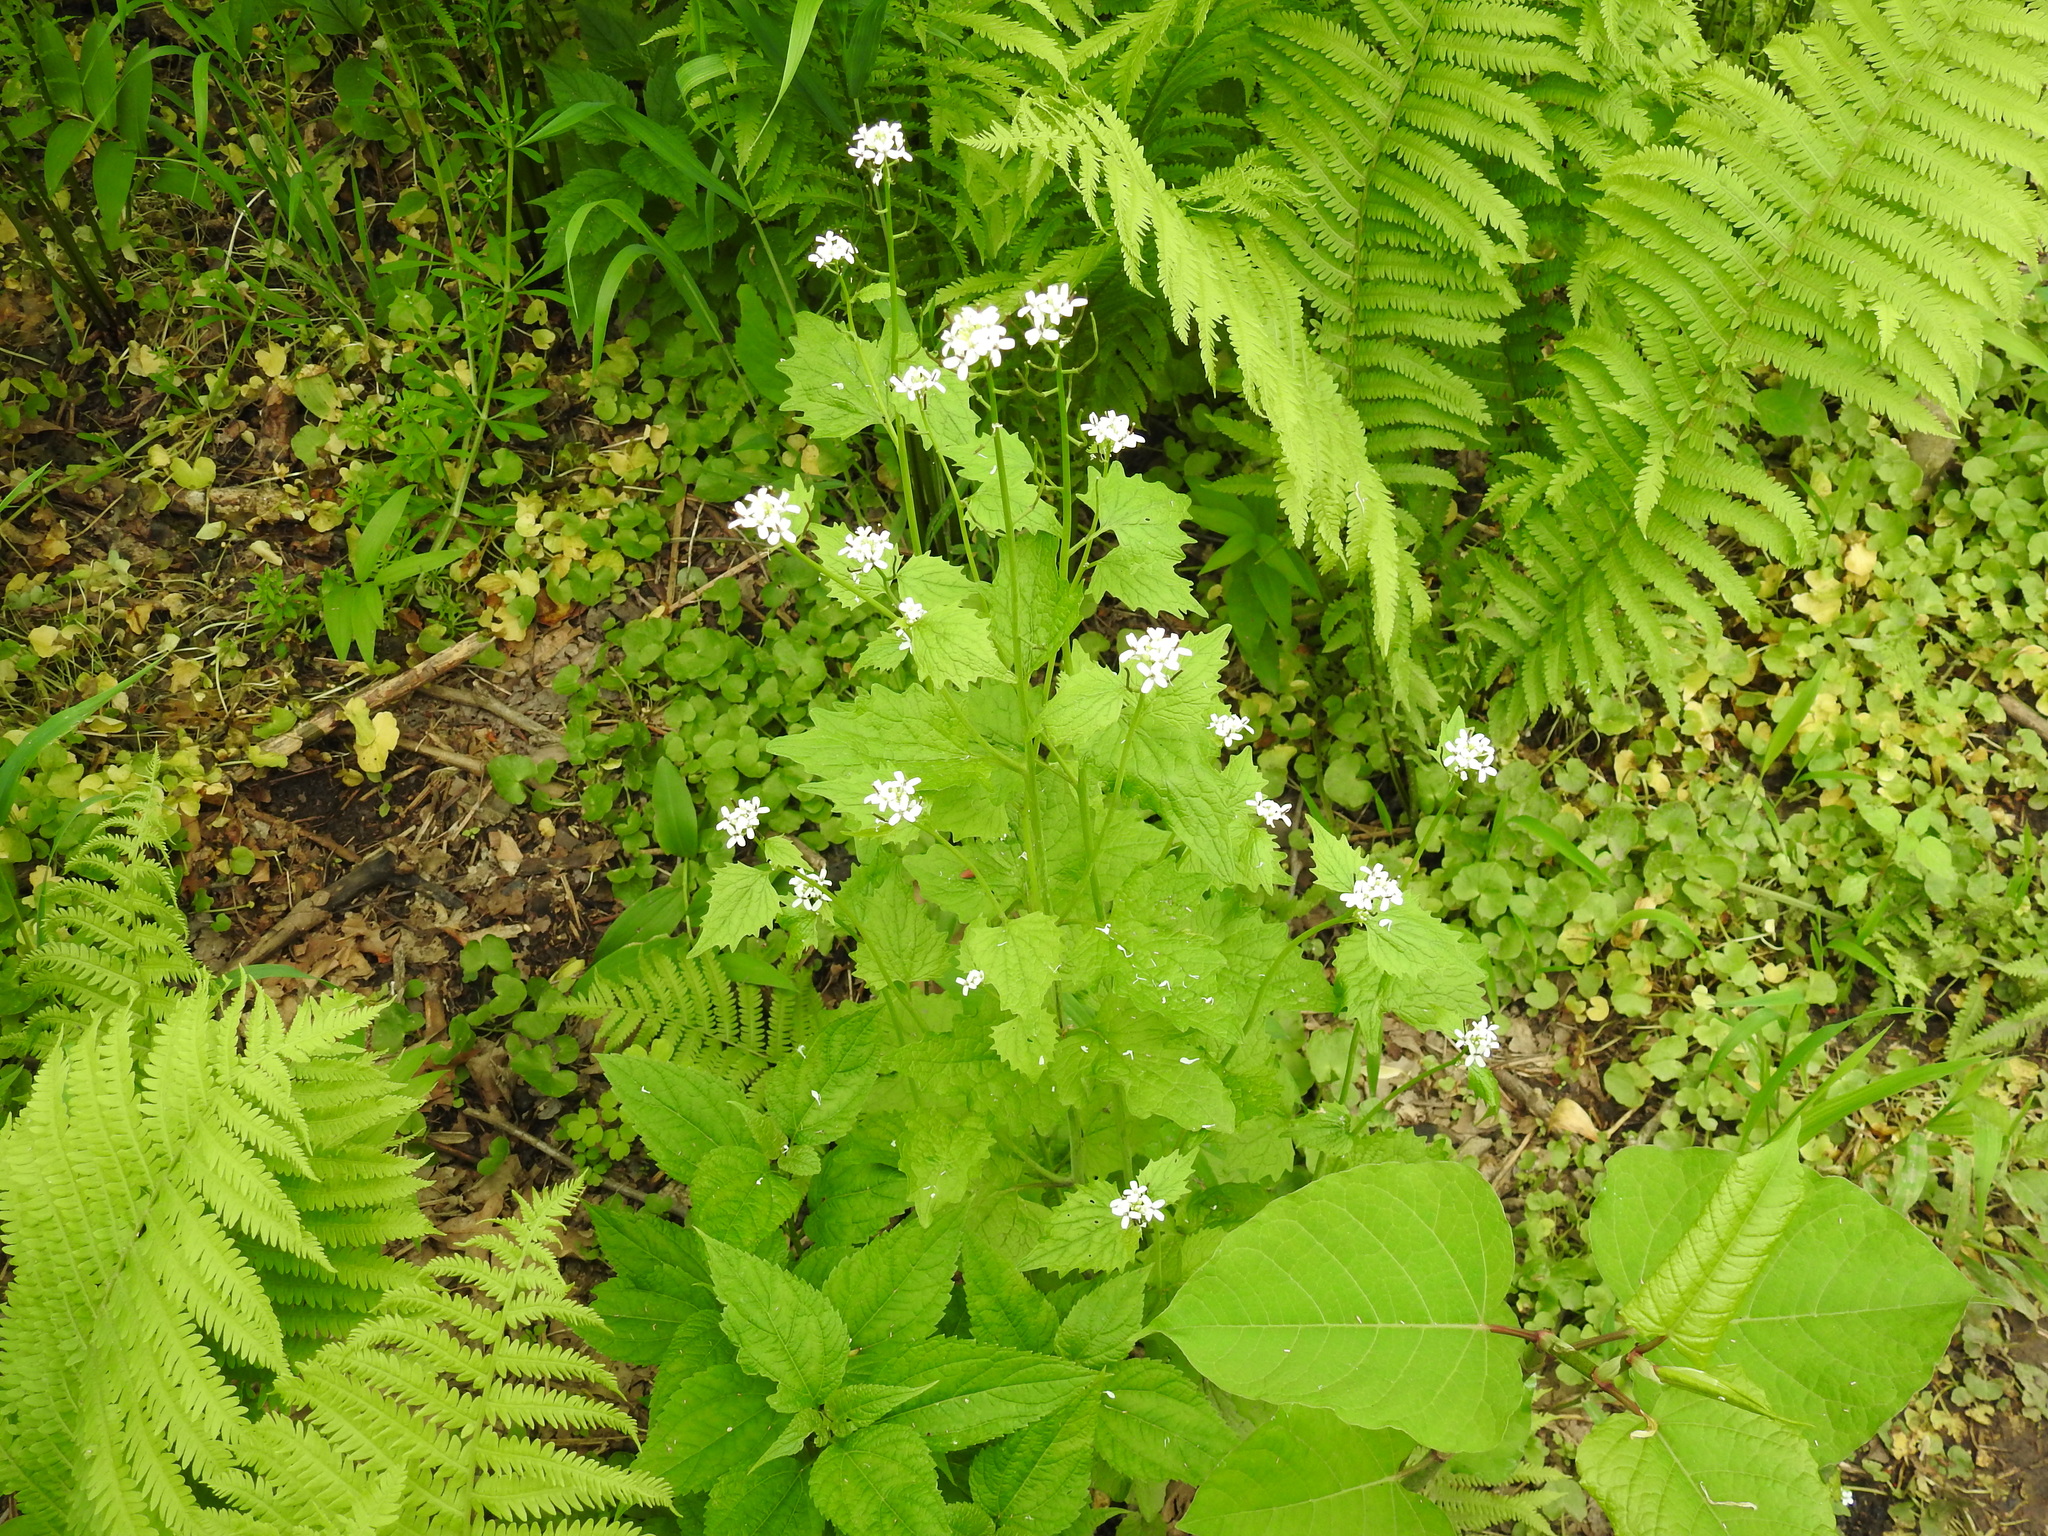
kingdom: Plantae
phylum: Tracheophyta
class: Magnoliopsida
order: Brassicales
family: Brassicaceae
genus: Alliaria
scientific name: Alliaria petiolata
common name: Garlic mustard
